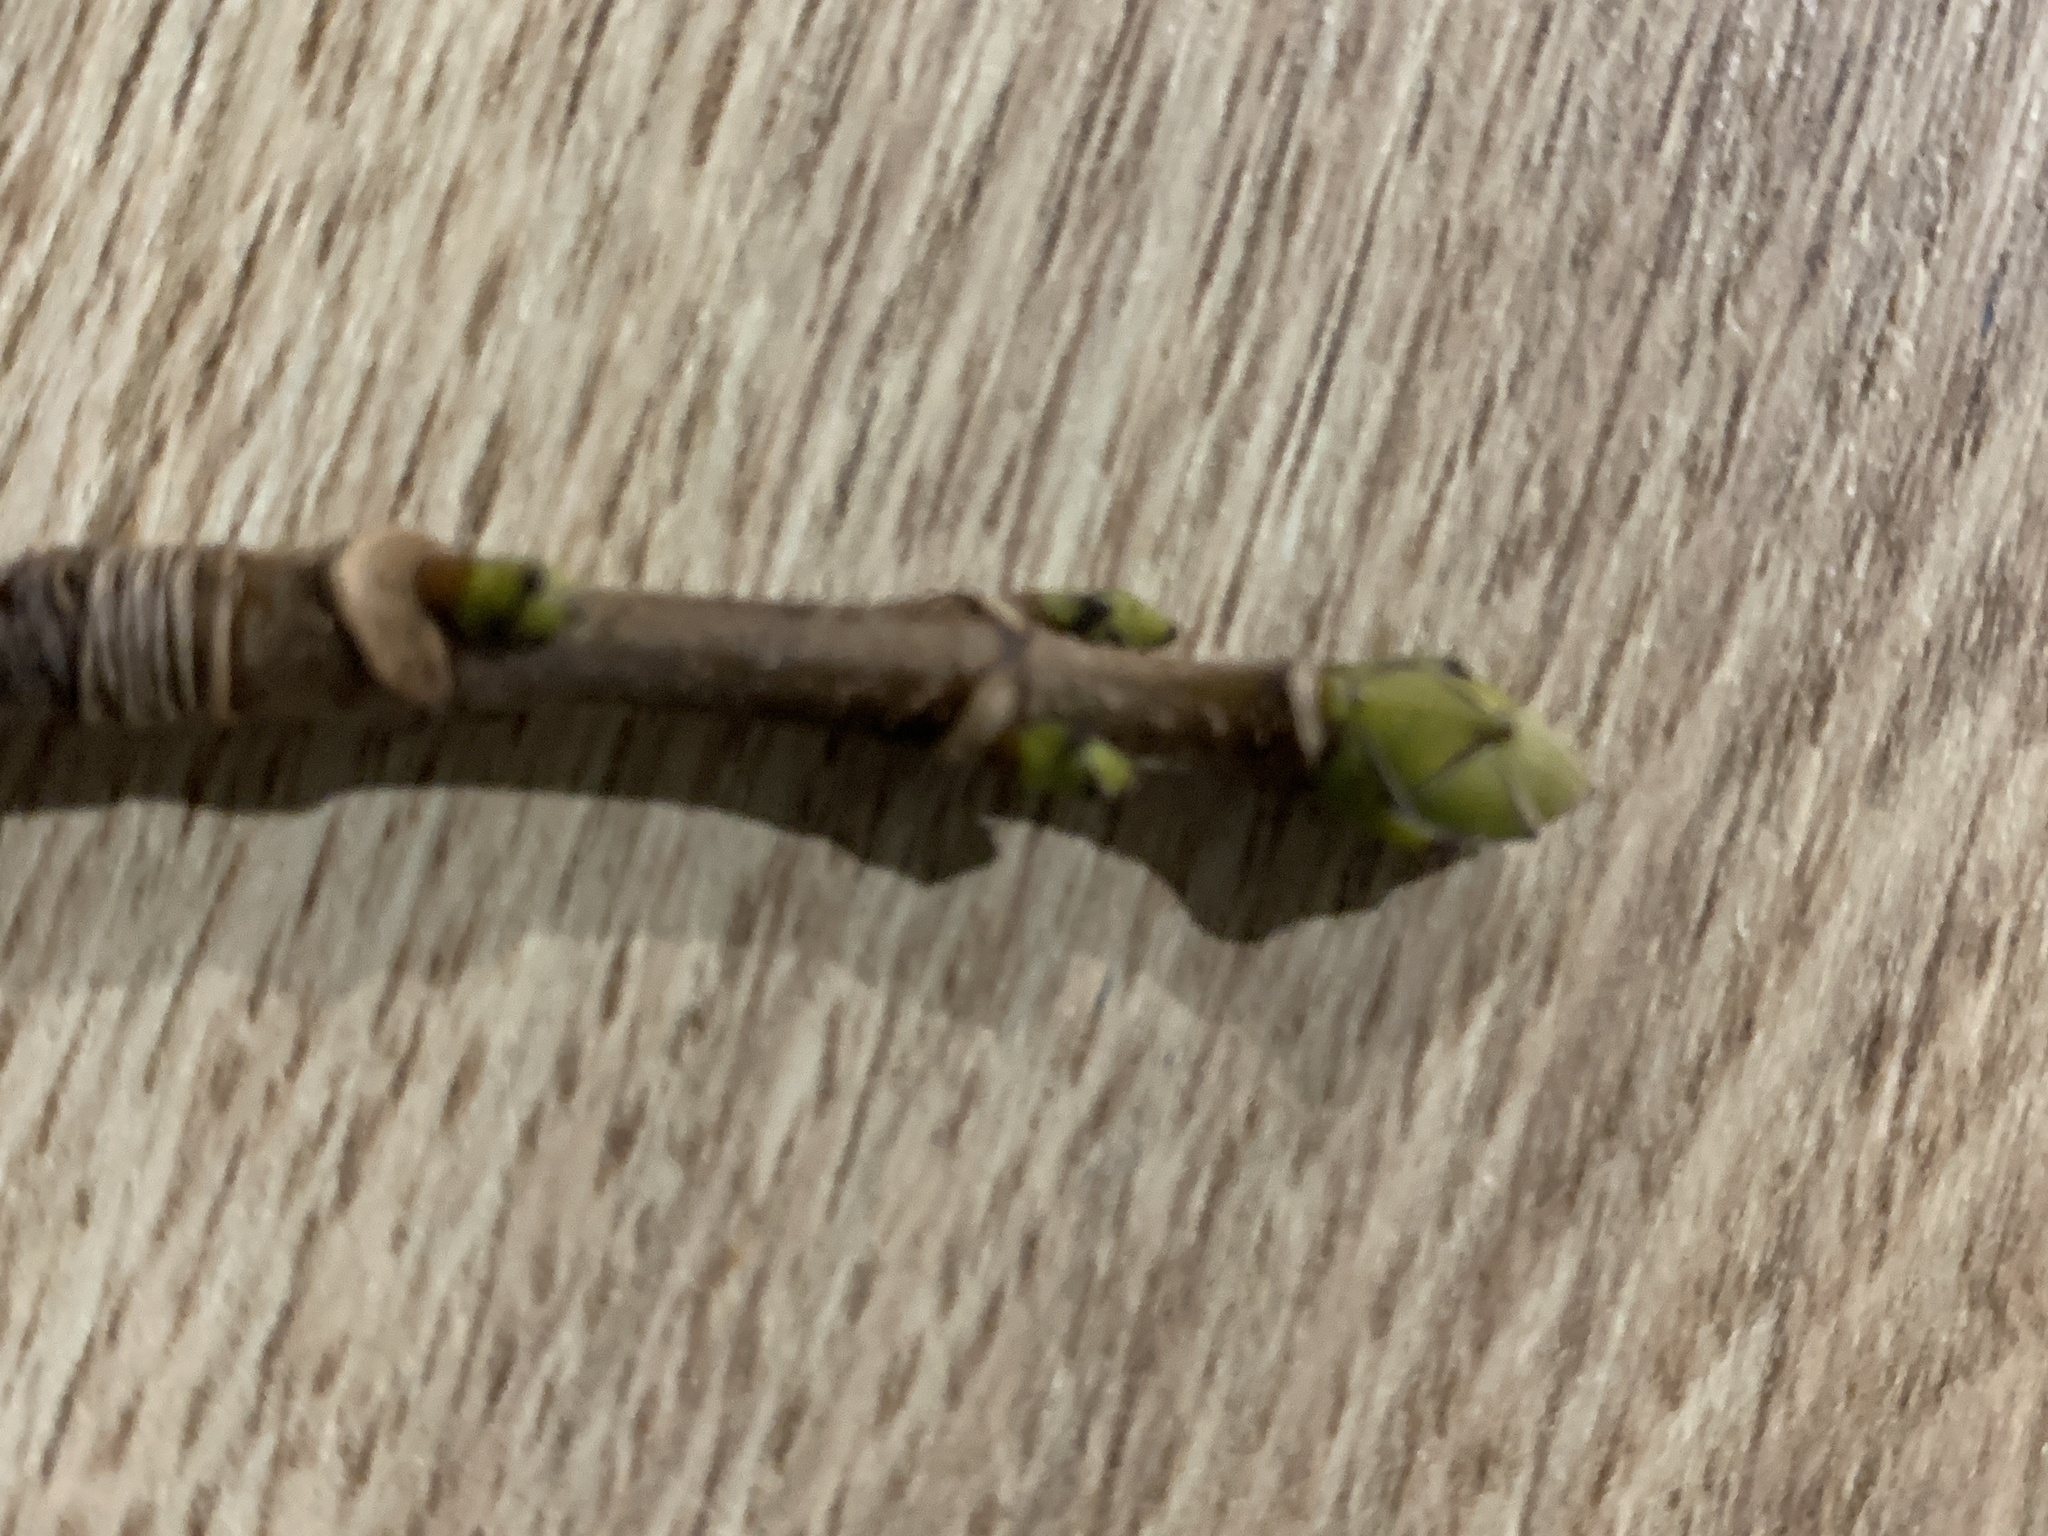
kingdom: Plantae
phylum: Tracheophyta
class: Magnoliopsida
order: Sapindales
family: Sapindaceae
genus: Acer
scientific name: Acer pseudoplatanus
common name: Sycamore
